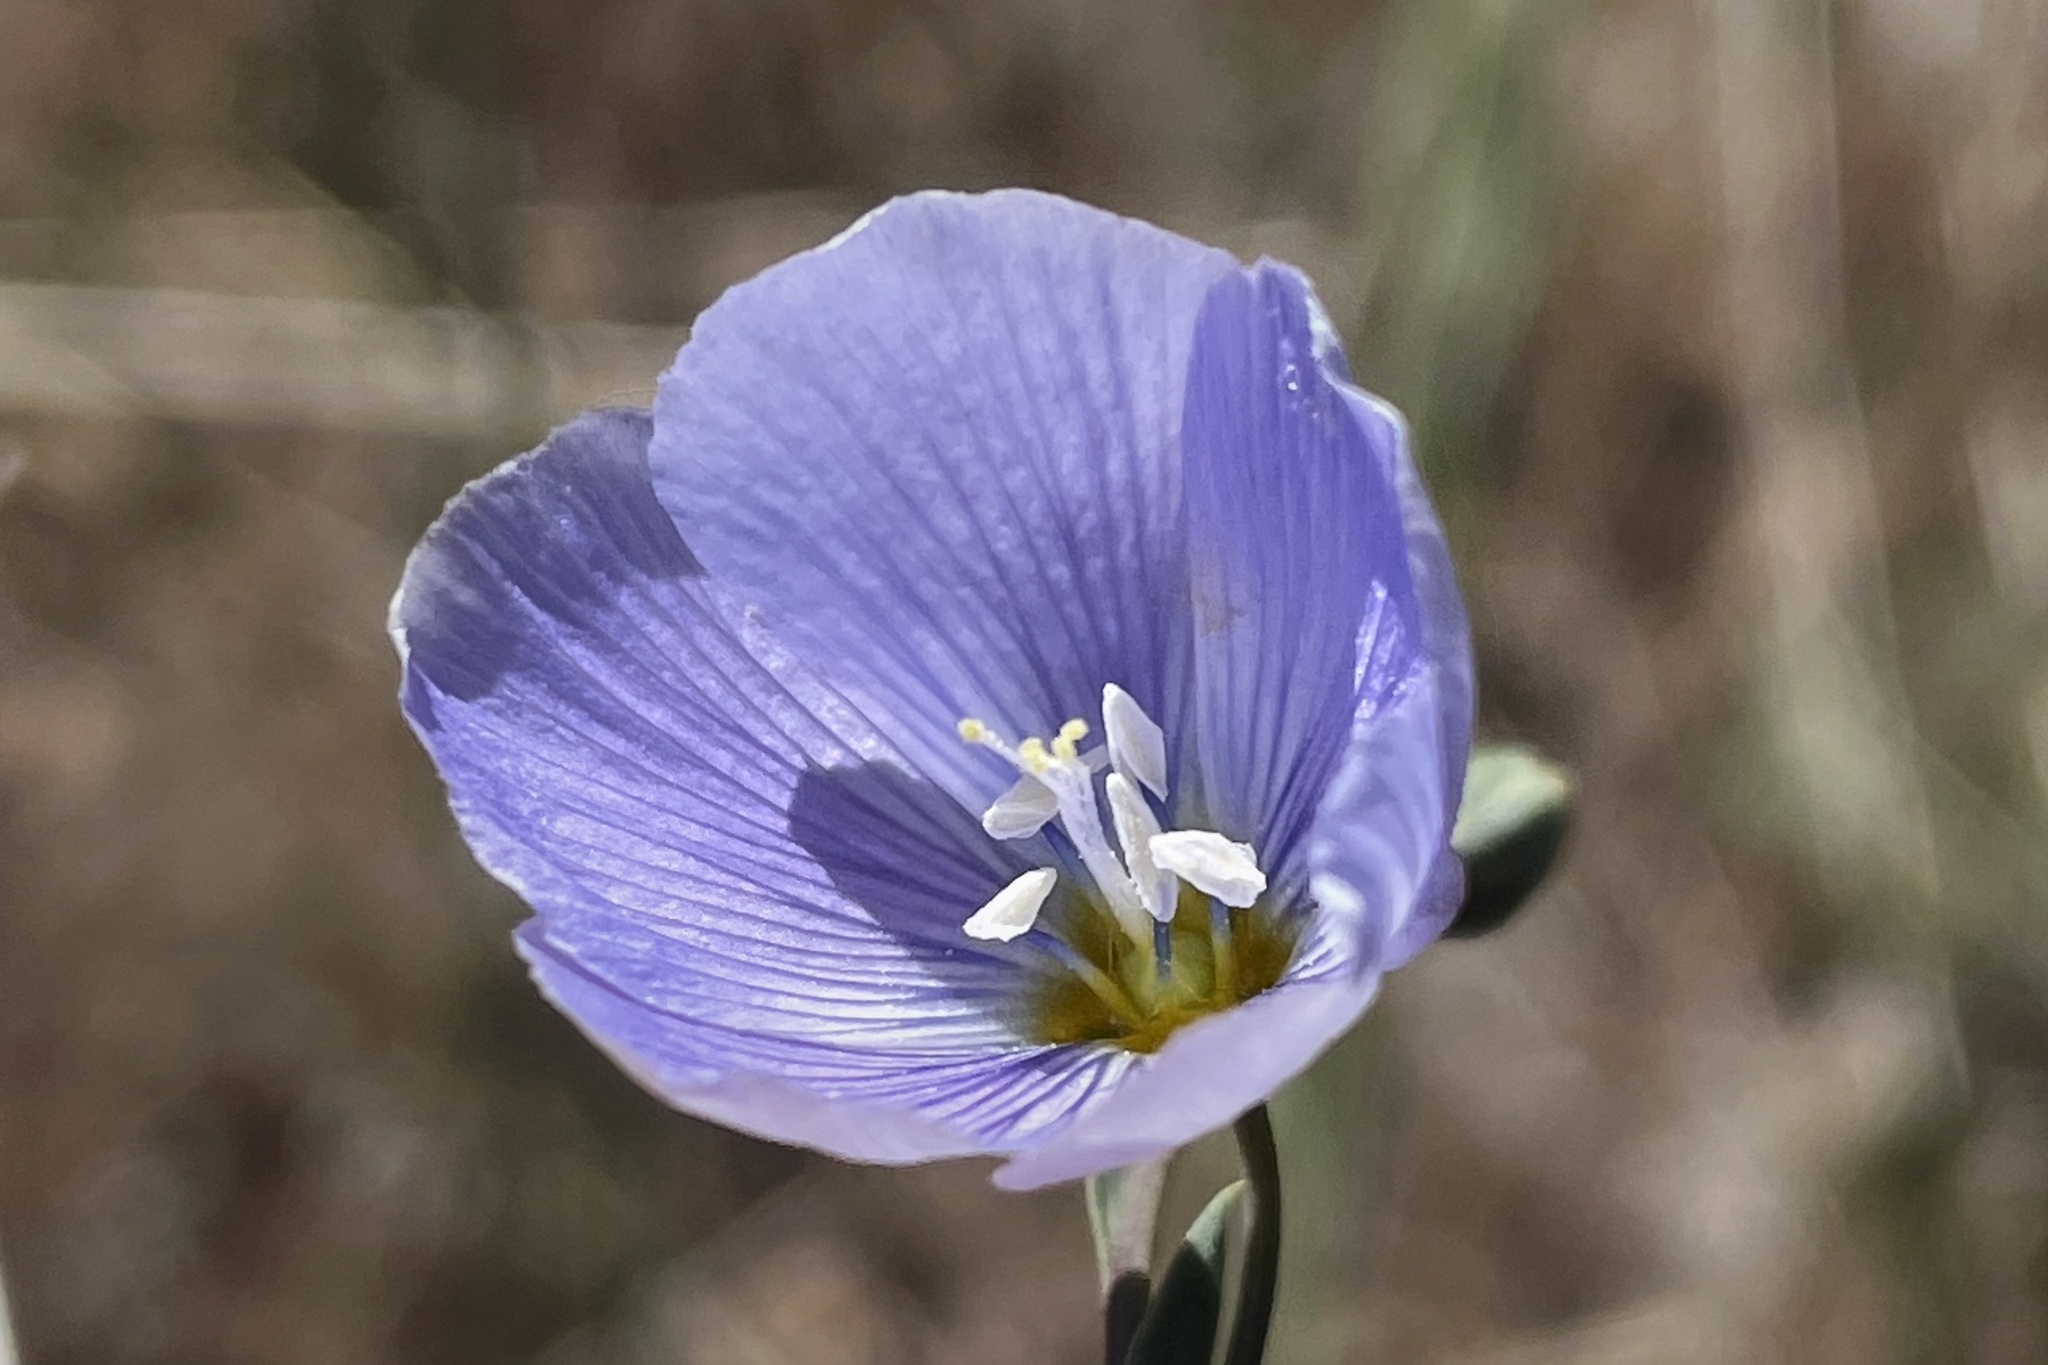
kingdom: Plantae
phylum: Tracheophyta
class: Magnoliopsida
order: Malpighiales
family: Linaceae
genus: Linum
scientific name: Linum lewisii
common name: Prairie flax
